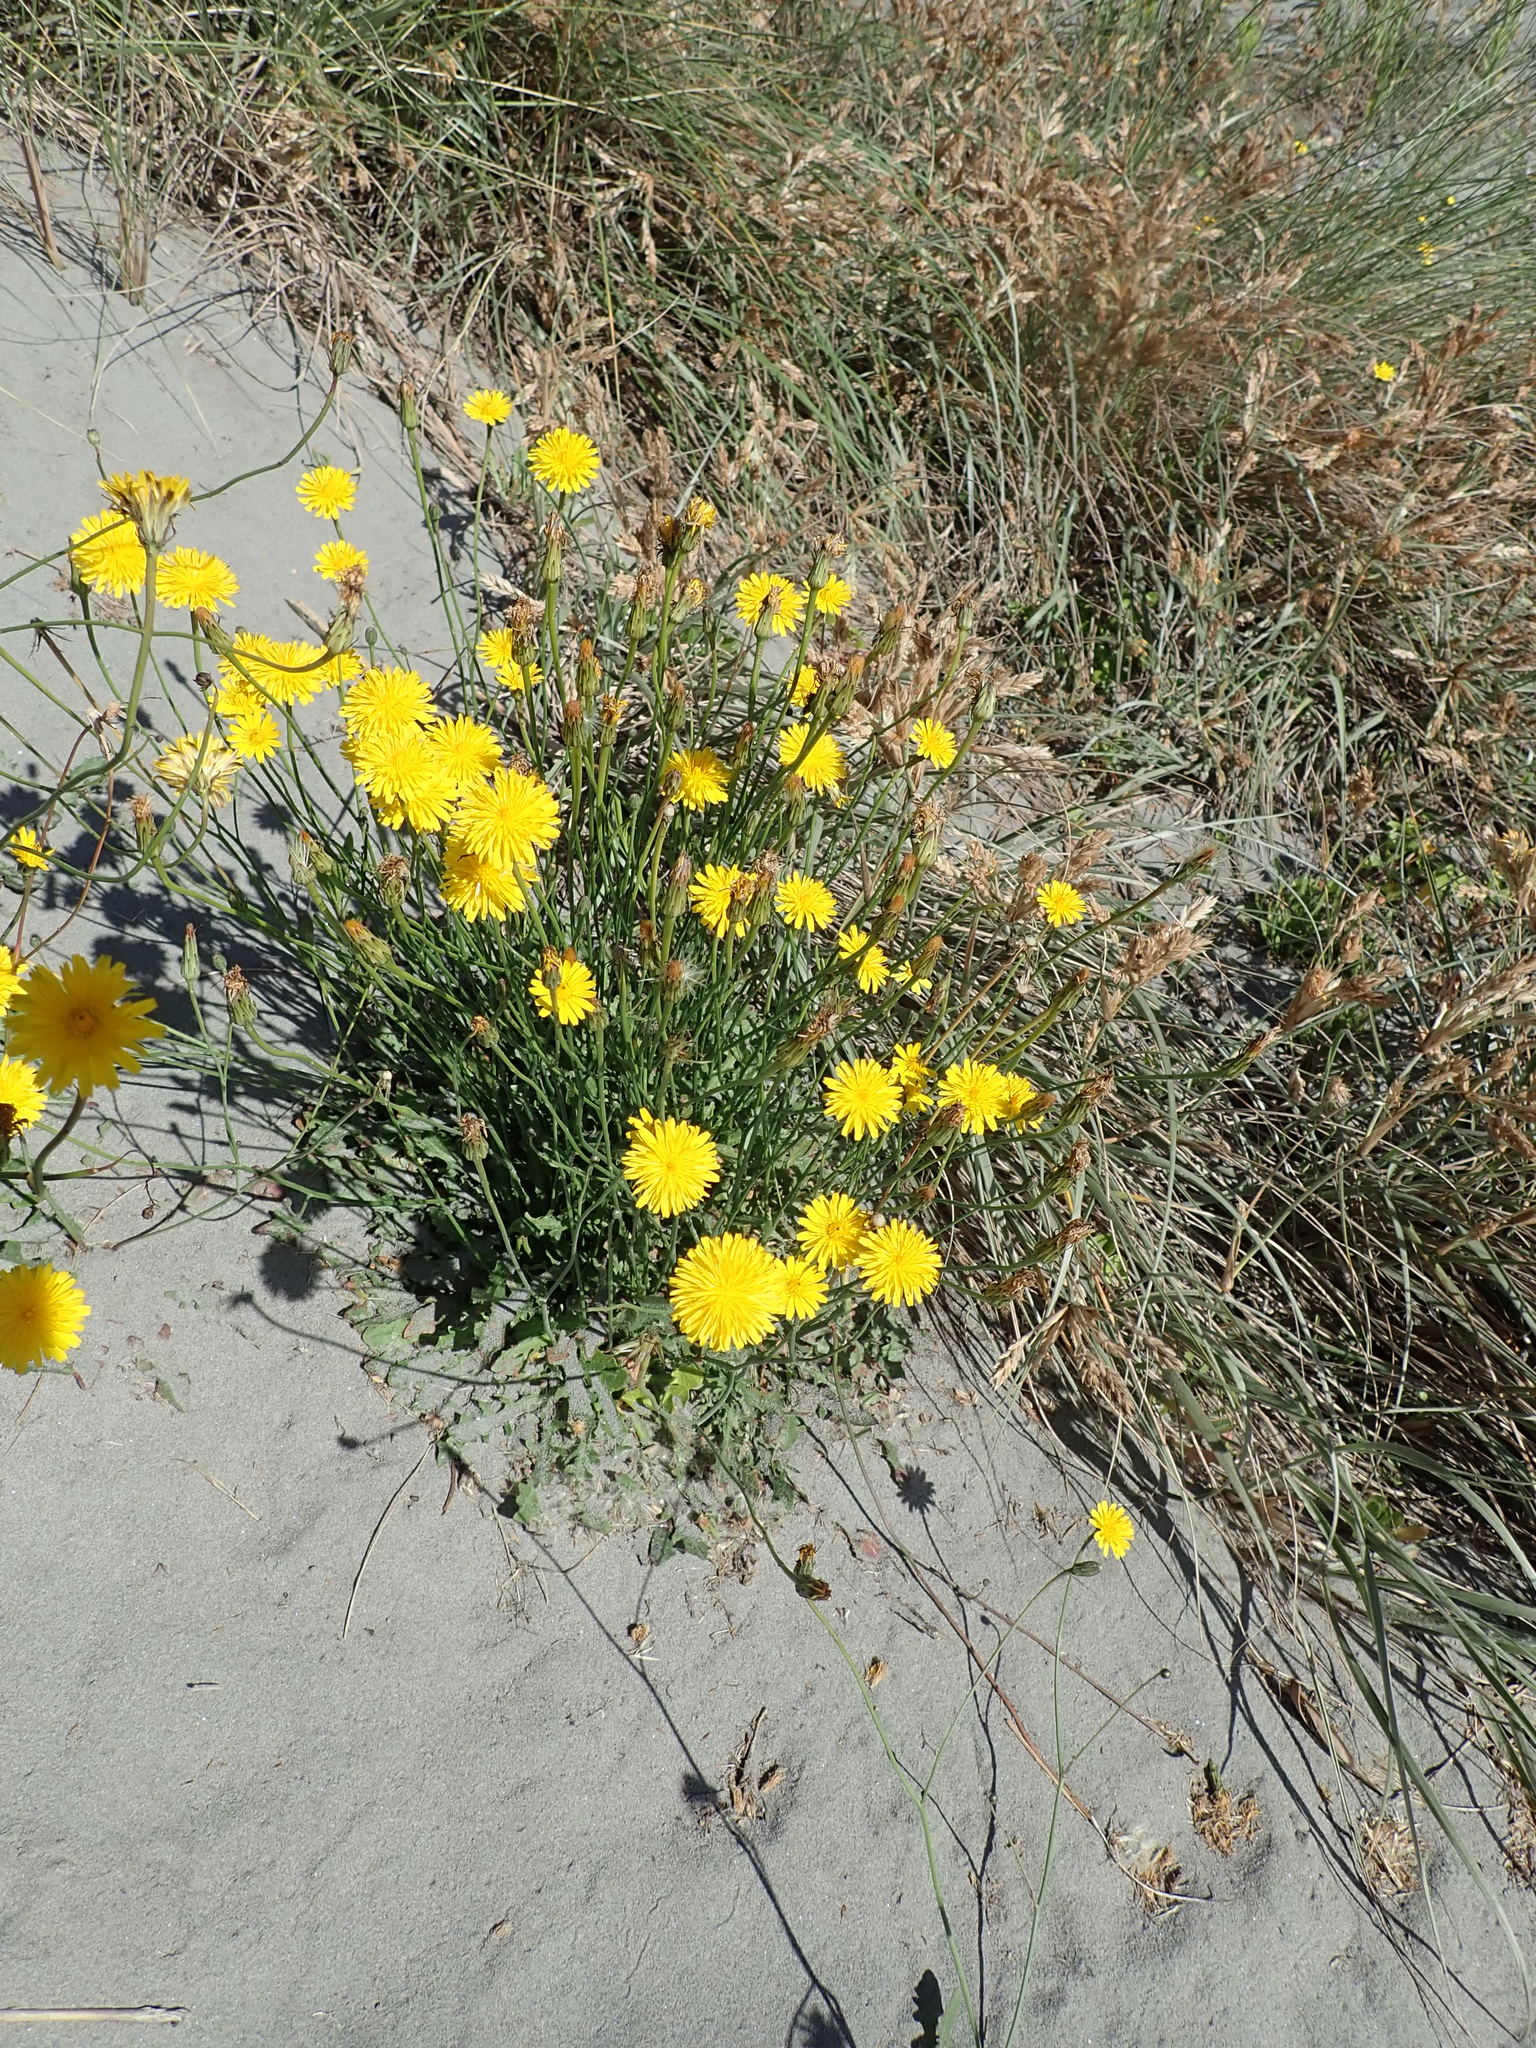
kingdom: Plantae
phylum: Tracheophyta
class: Magnoliopsida
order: Asterales
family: Asteraceae
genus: Hypochaeris
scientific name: Hypochaeris radicata
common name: Flatweed
